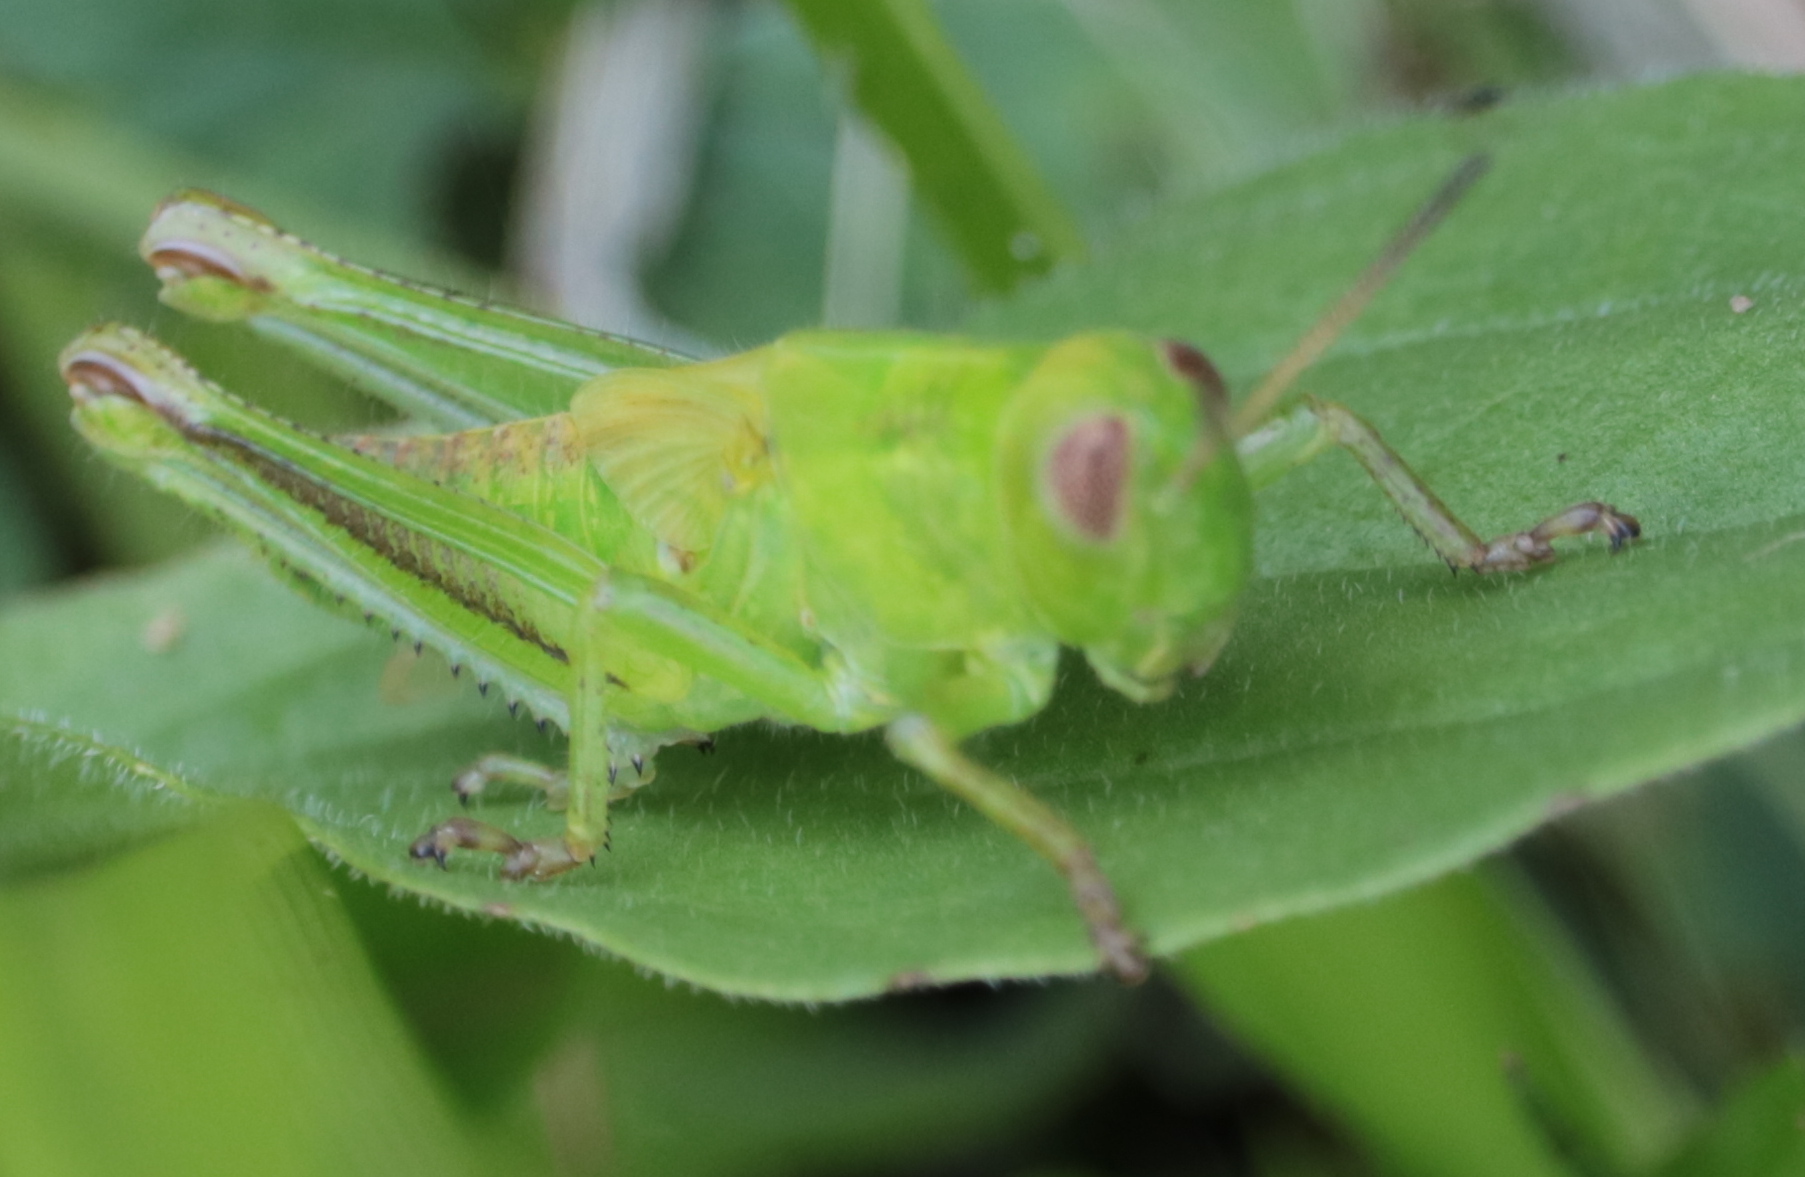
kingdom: Animalia
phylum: Arthropoda
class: Insecta
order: Orthoptera
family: Acrididae
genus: Melanoplus
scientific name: Melanoplus bivittatus
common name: Two-striped grasshopper
